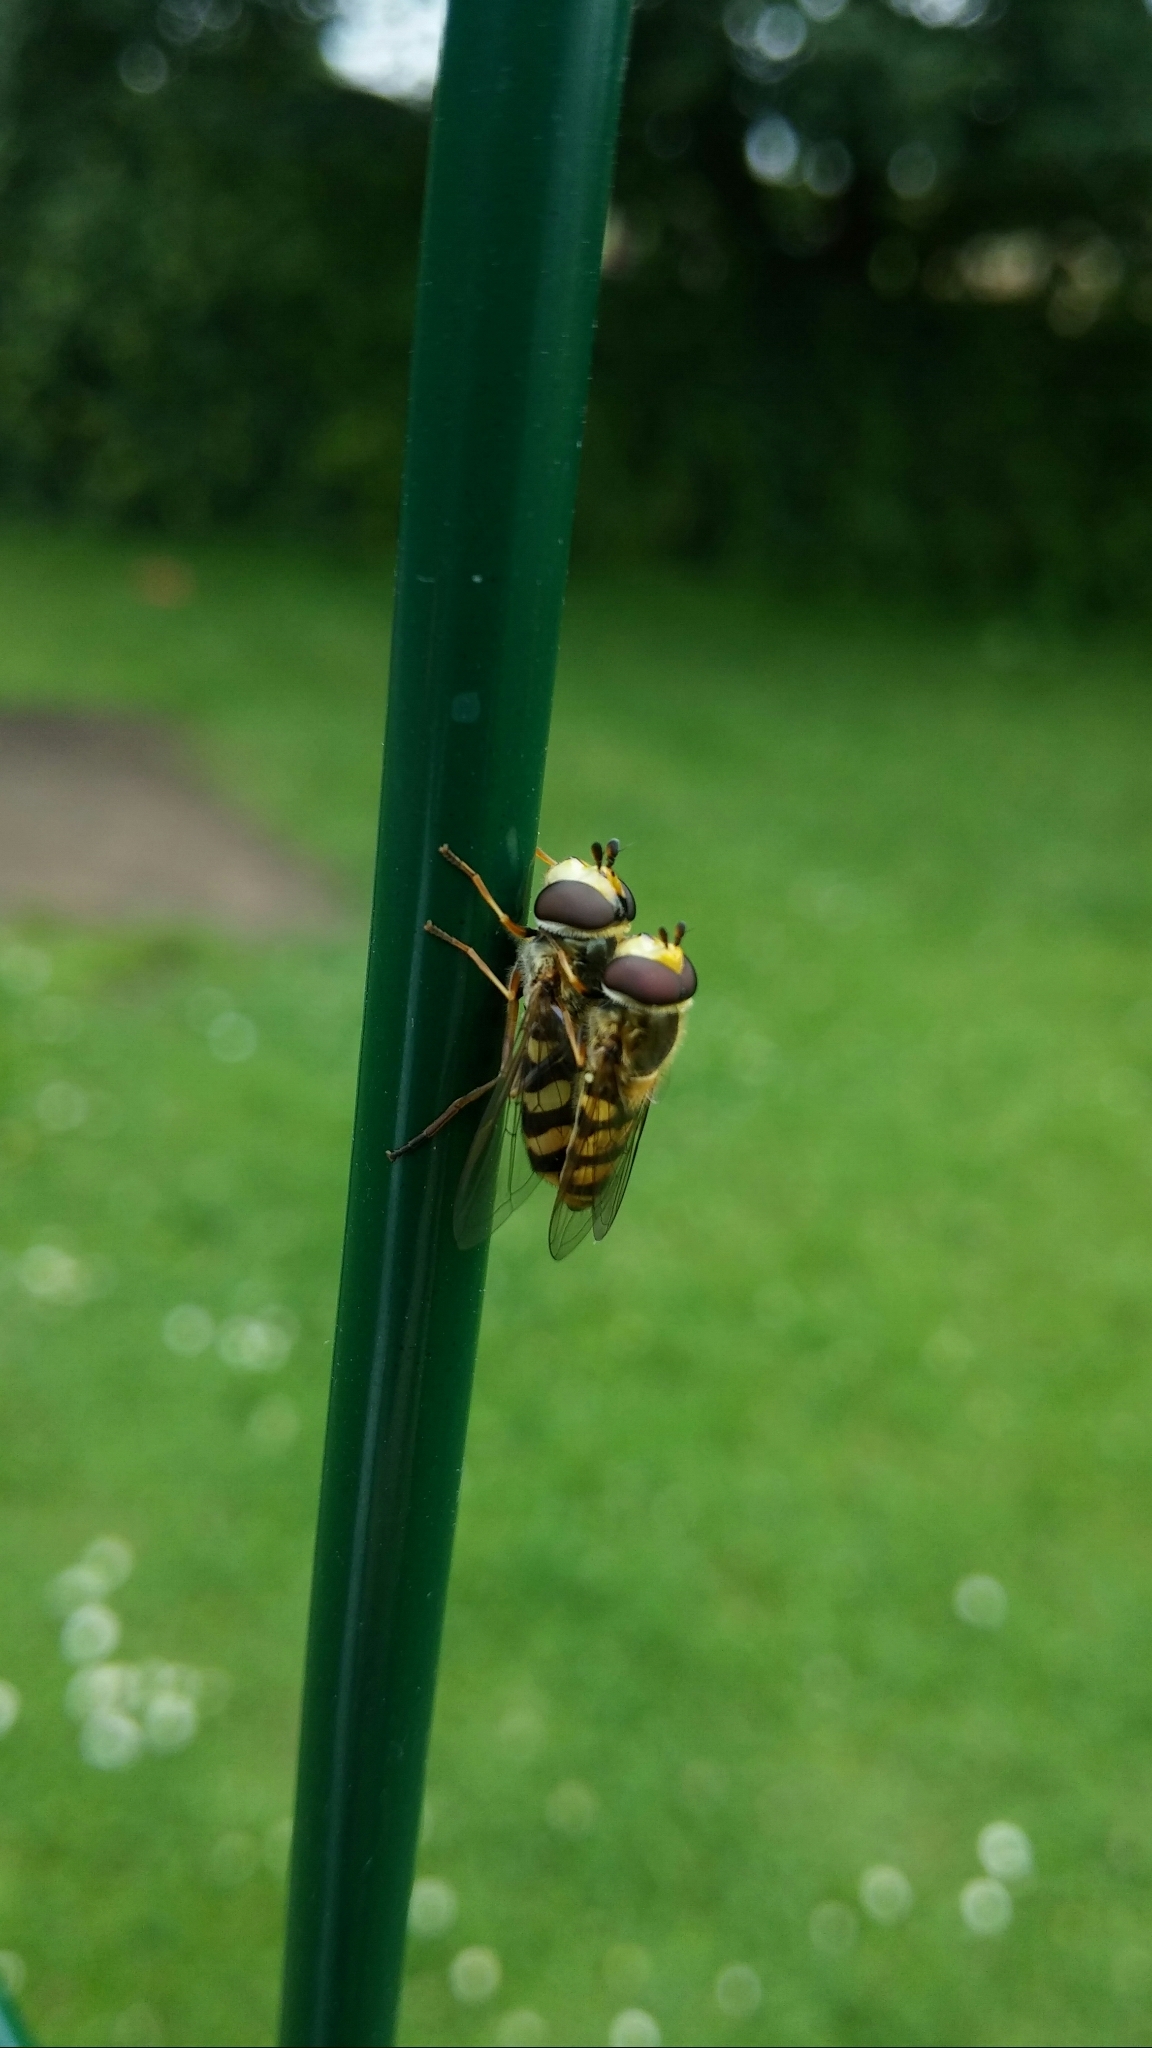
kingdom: Animalia
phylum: Arthropoda
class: Insecta
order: Diptera
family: Syrphidae
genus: Eupeodes
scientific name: Eupeodes corollae
